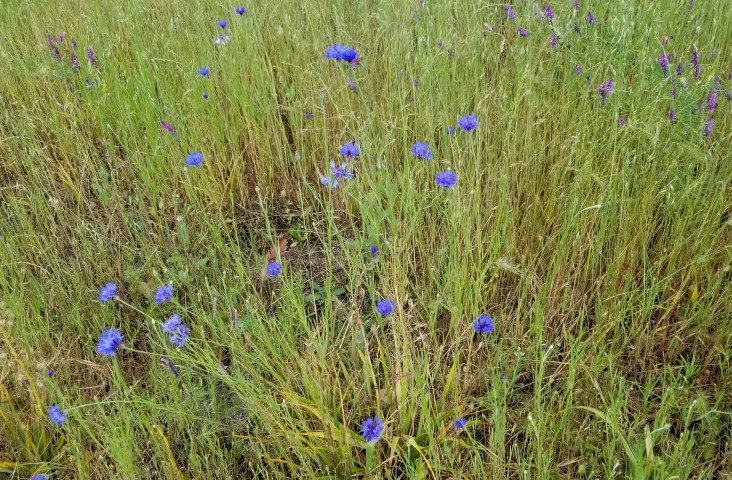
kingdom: Plantae
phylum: Tracheophyta
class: Magnoliopsida
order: Asterales
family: Asteraceae
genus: Centaurea
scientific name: Centaurea cyanus
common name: Cornflower
